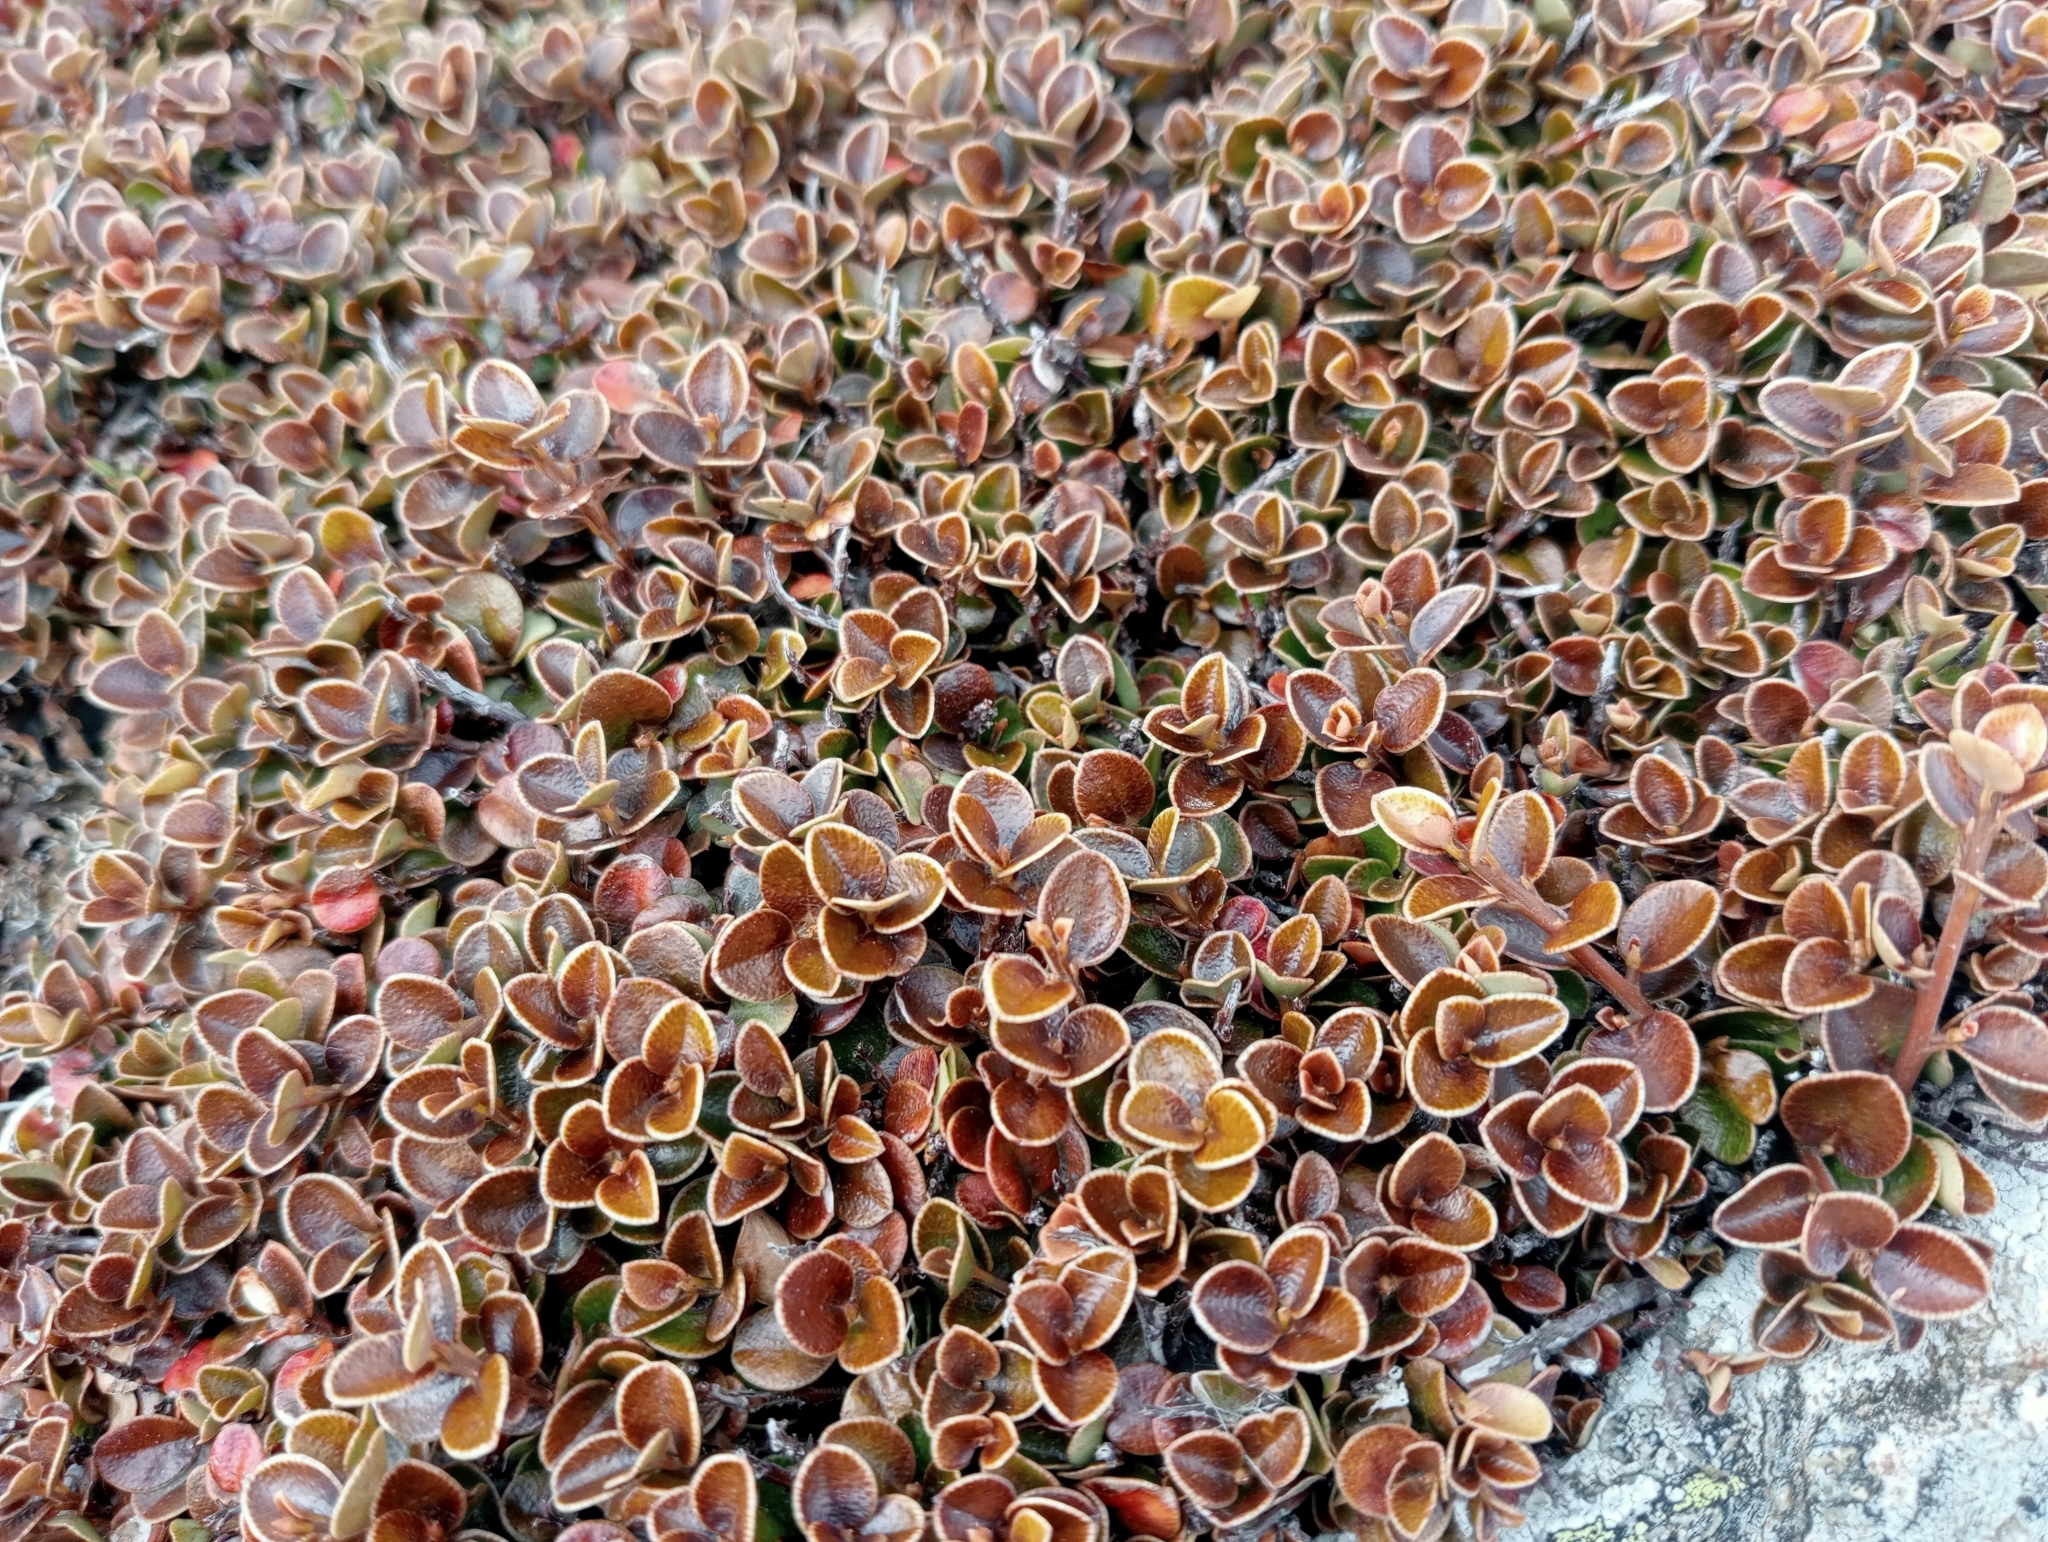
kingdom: Plantae
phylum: Tracheophyta
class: Magnoliopsida
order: Ericales
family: Primulaceae
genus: Myrsine
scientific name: Myrsine nummularia
